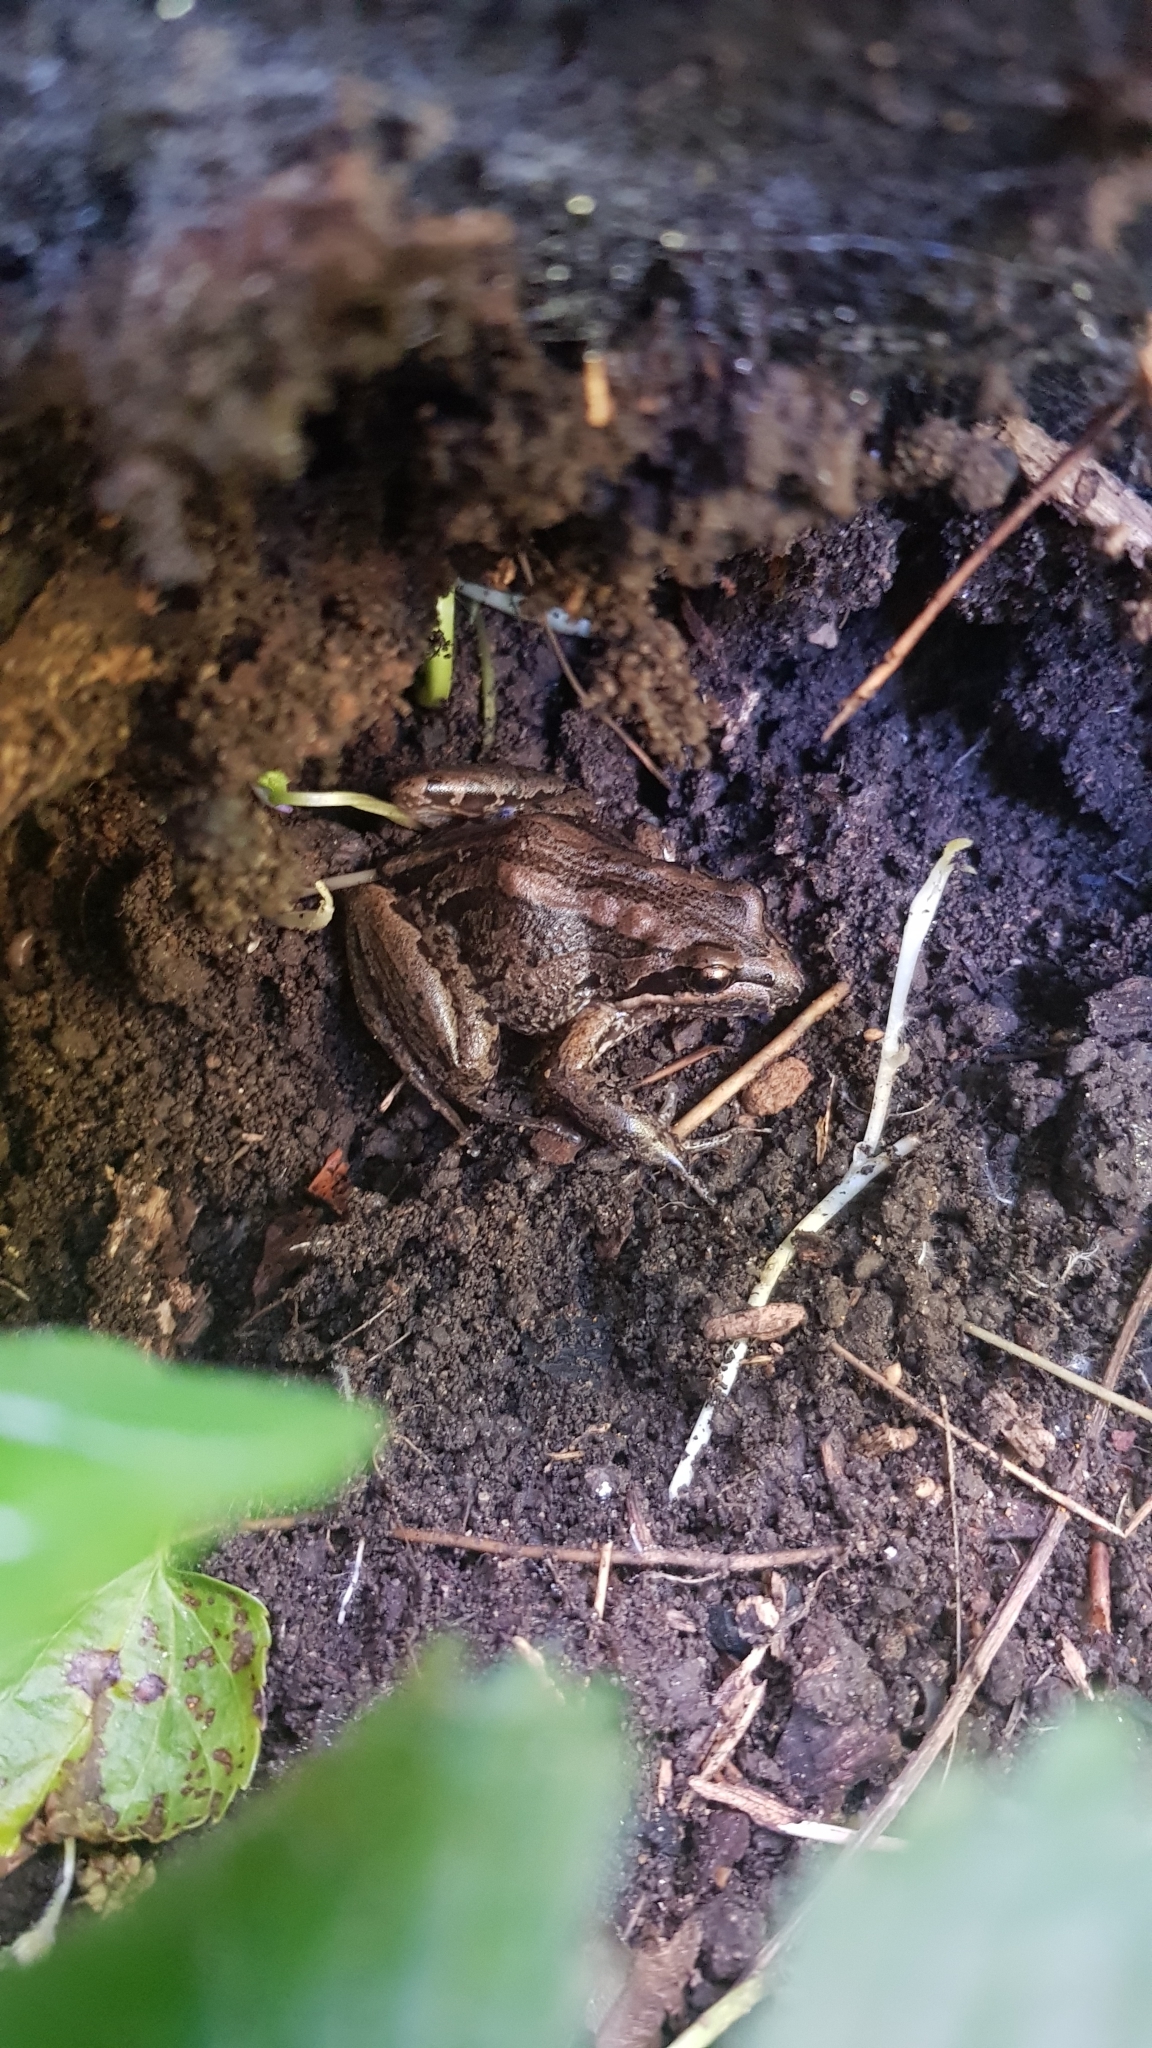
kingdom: Animalia
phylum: Chordata
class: Amphibia
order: Anura
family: Limnodynastidae
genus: Limnodynastes
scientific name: Limnodynastes peronii
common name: Brown frog
